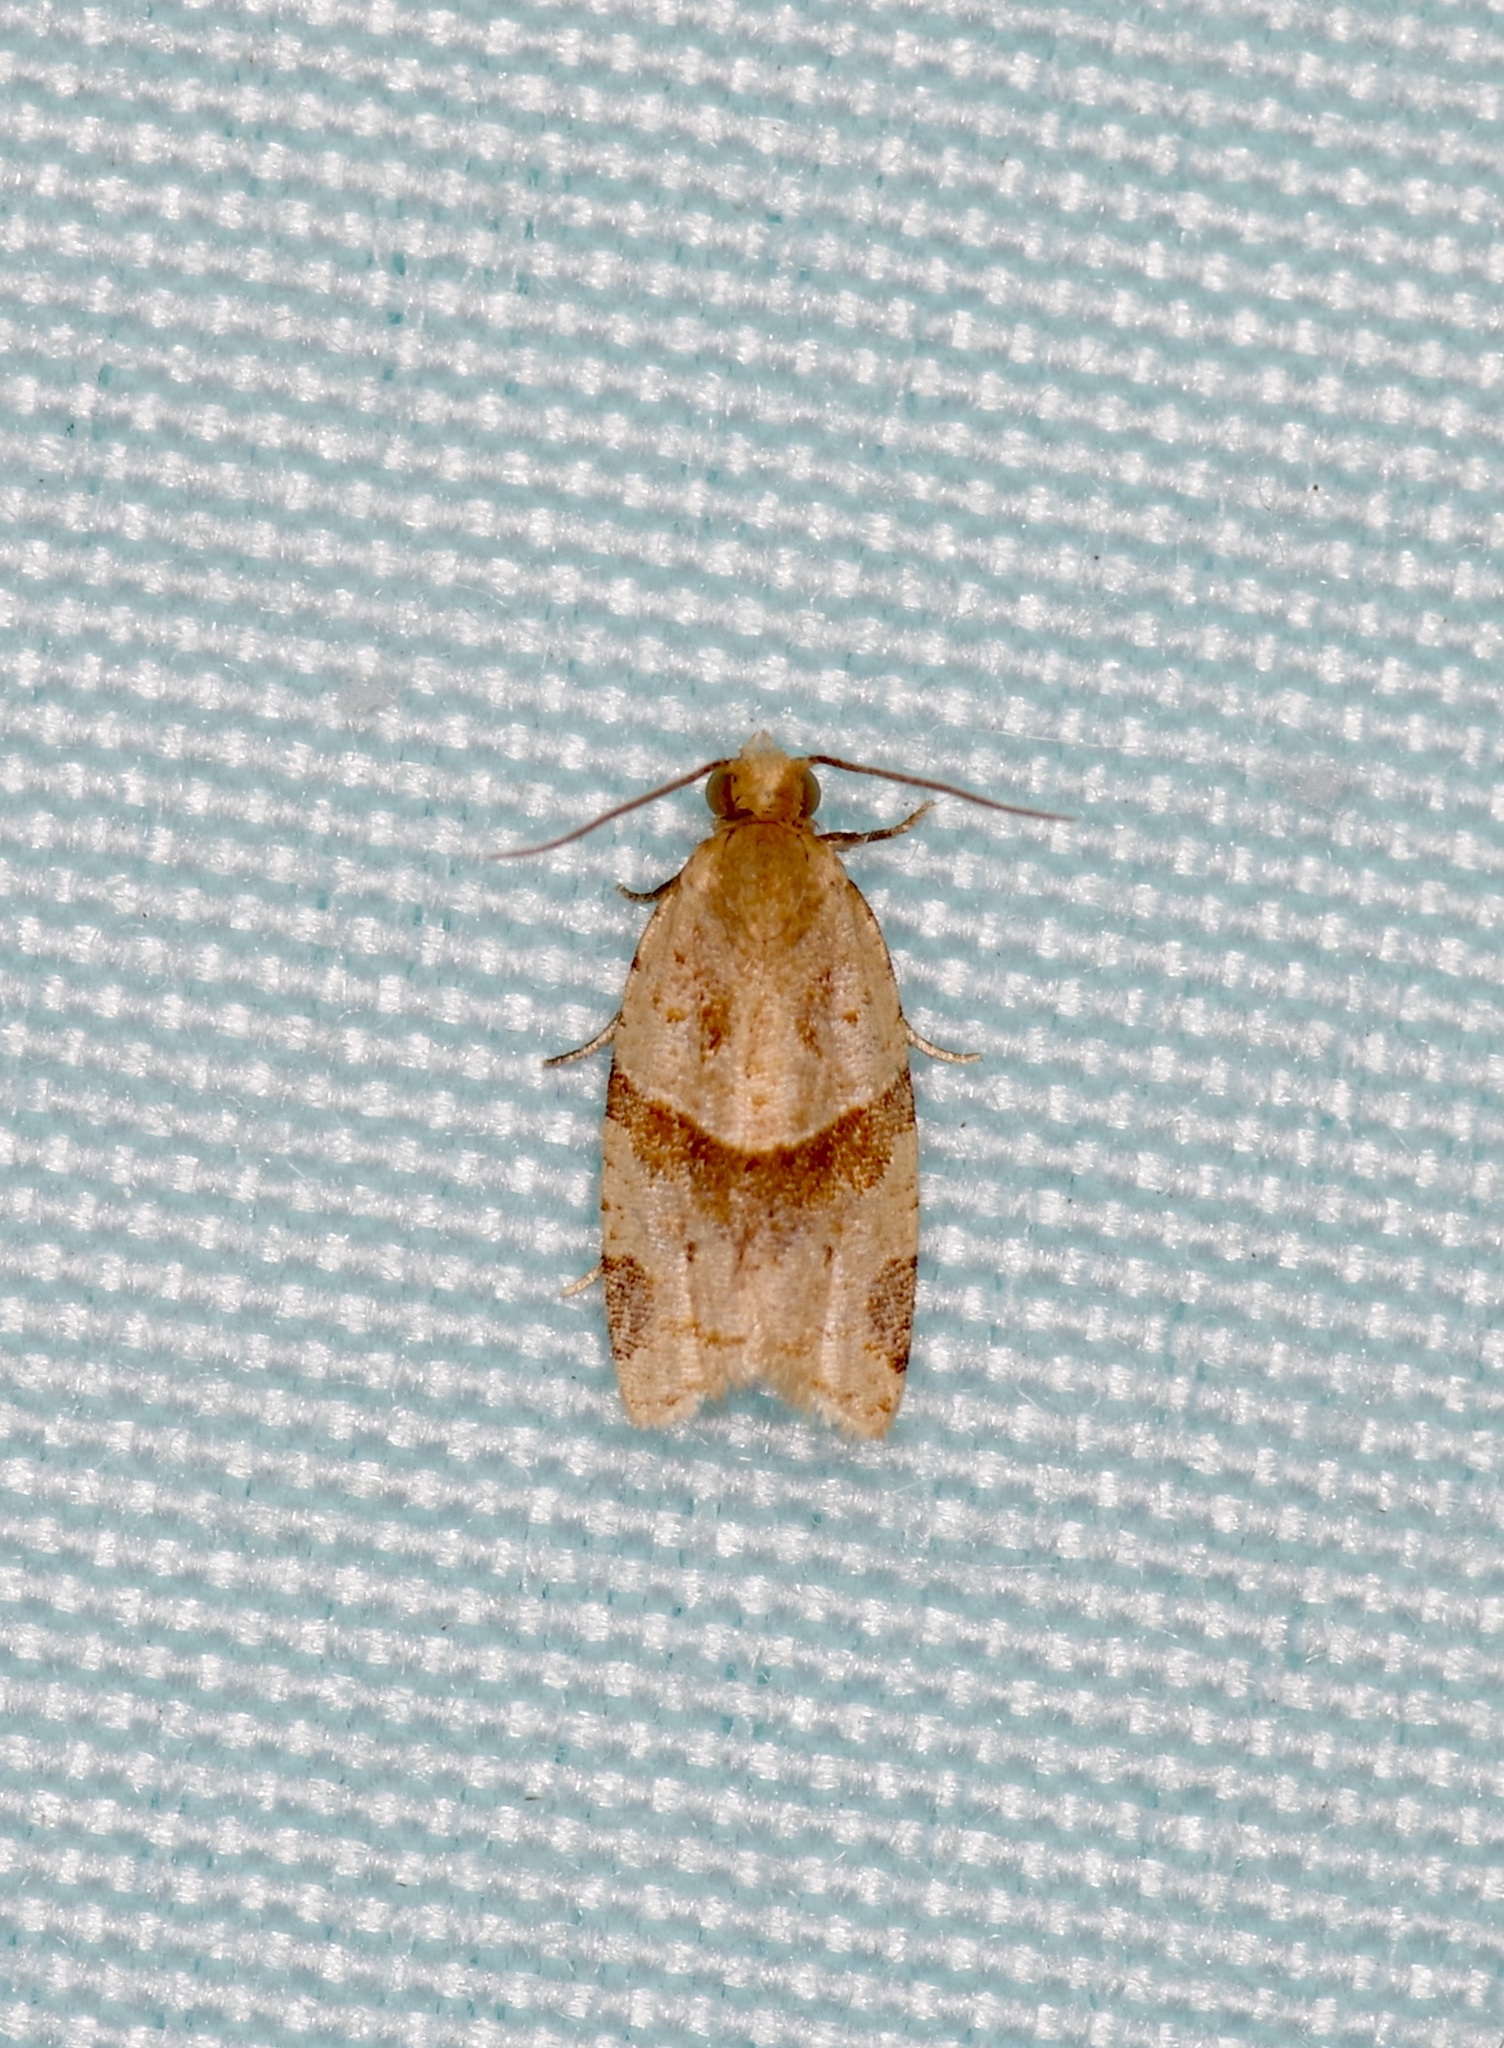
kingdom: Animalia
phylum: Arthropoda
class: Insecta
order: Lepidoptera
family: Tortricidae
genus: Clepsis
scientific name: Clepsis peritana
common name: Garden tortrix
